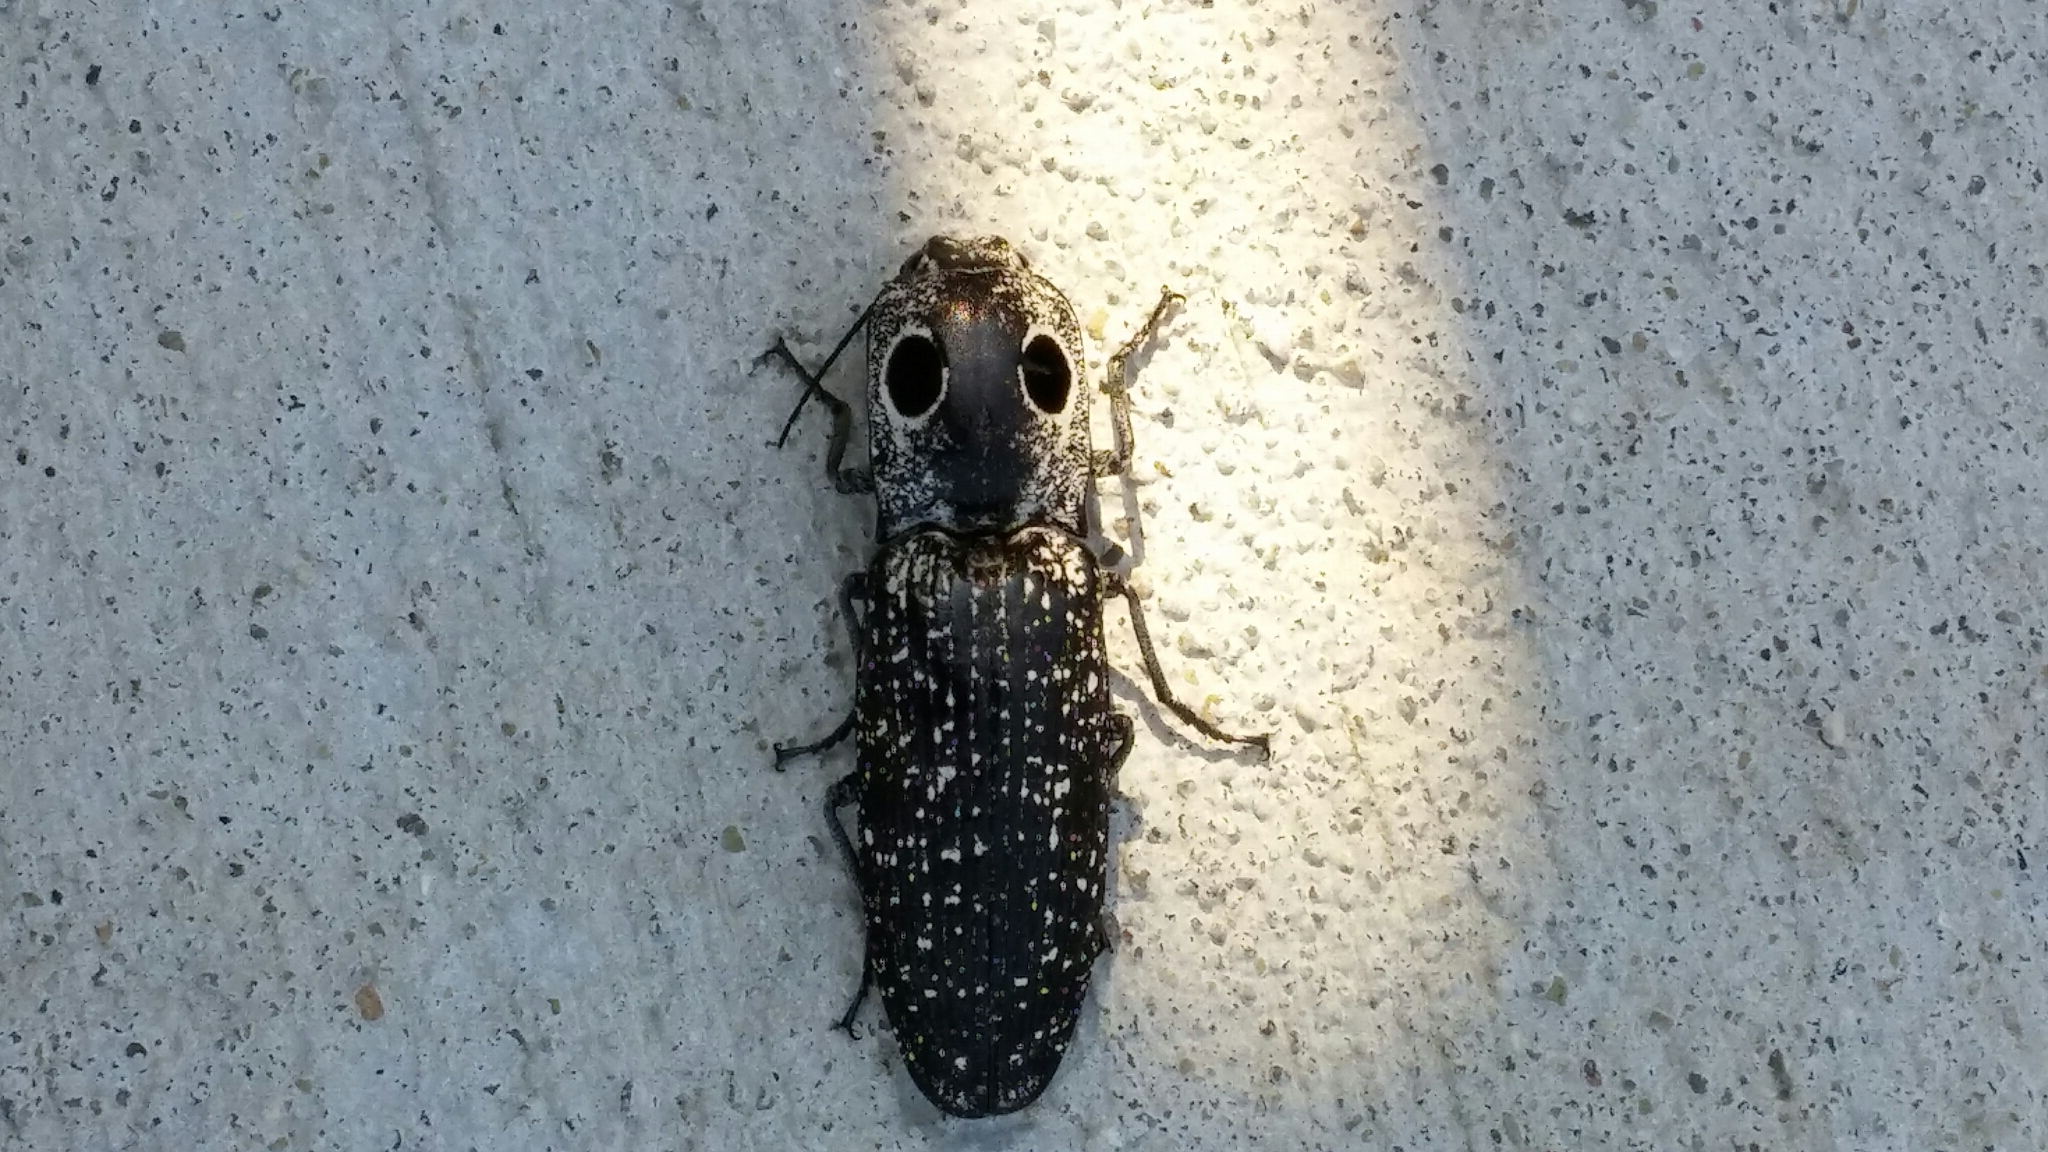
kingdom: Animalia
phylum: Arthropoda
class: Insecta
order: Coleoptera
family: Elateridae
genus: Alaus
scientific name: Alaus oculatus
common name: Eastern eyed click beetle
